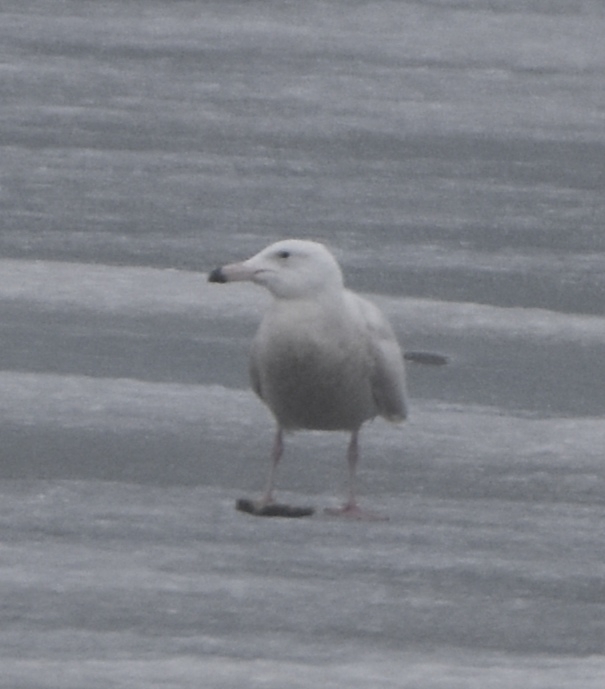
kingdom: Animalia
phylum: Chordata
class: Aves
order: Charadriiformes
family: Laridae
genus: Larus
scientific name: Larus hyperboreus
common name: Glaucous gull
